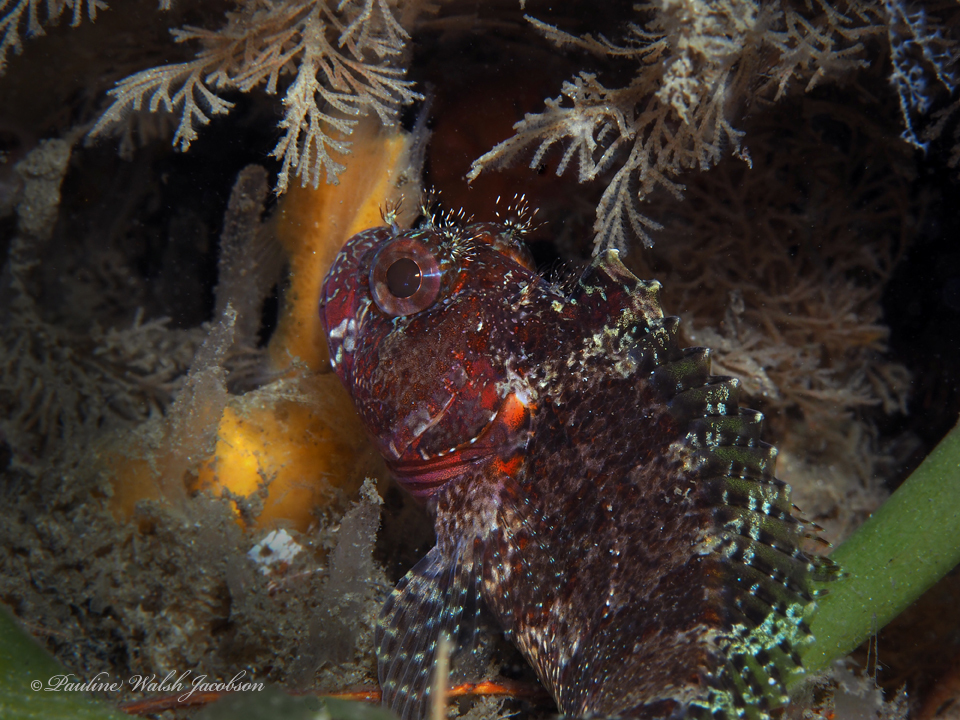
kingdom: Animalia
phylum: Chordata
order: Perciformes
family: Labrisomidae
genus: Gobioclinus
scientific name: Gobioclinus kalisherae
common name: Downy blenny
